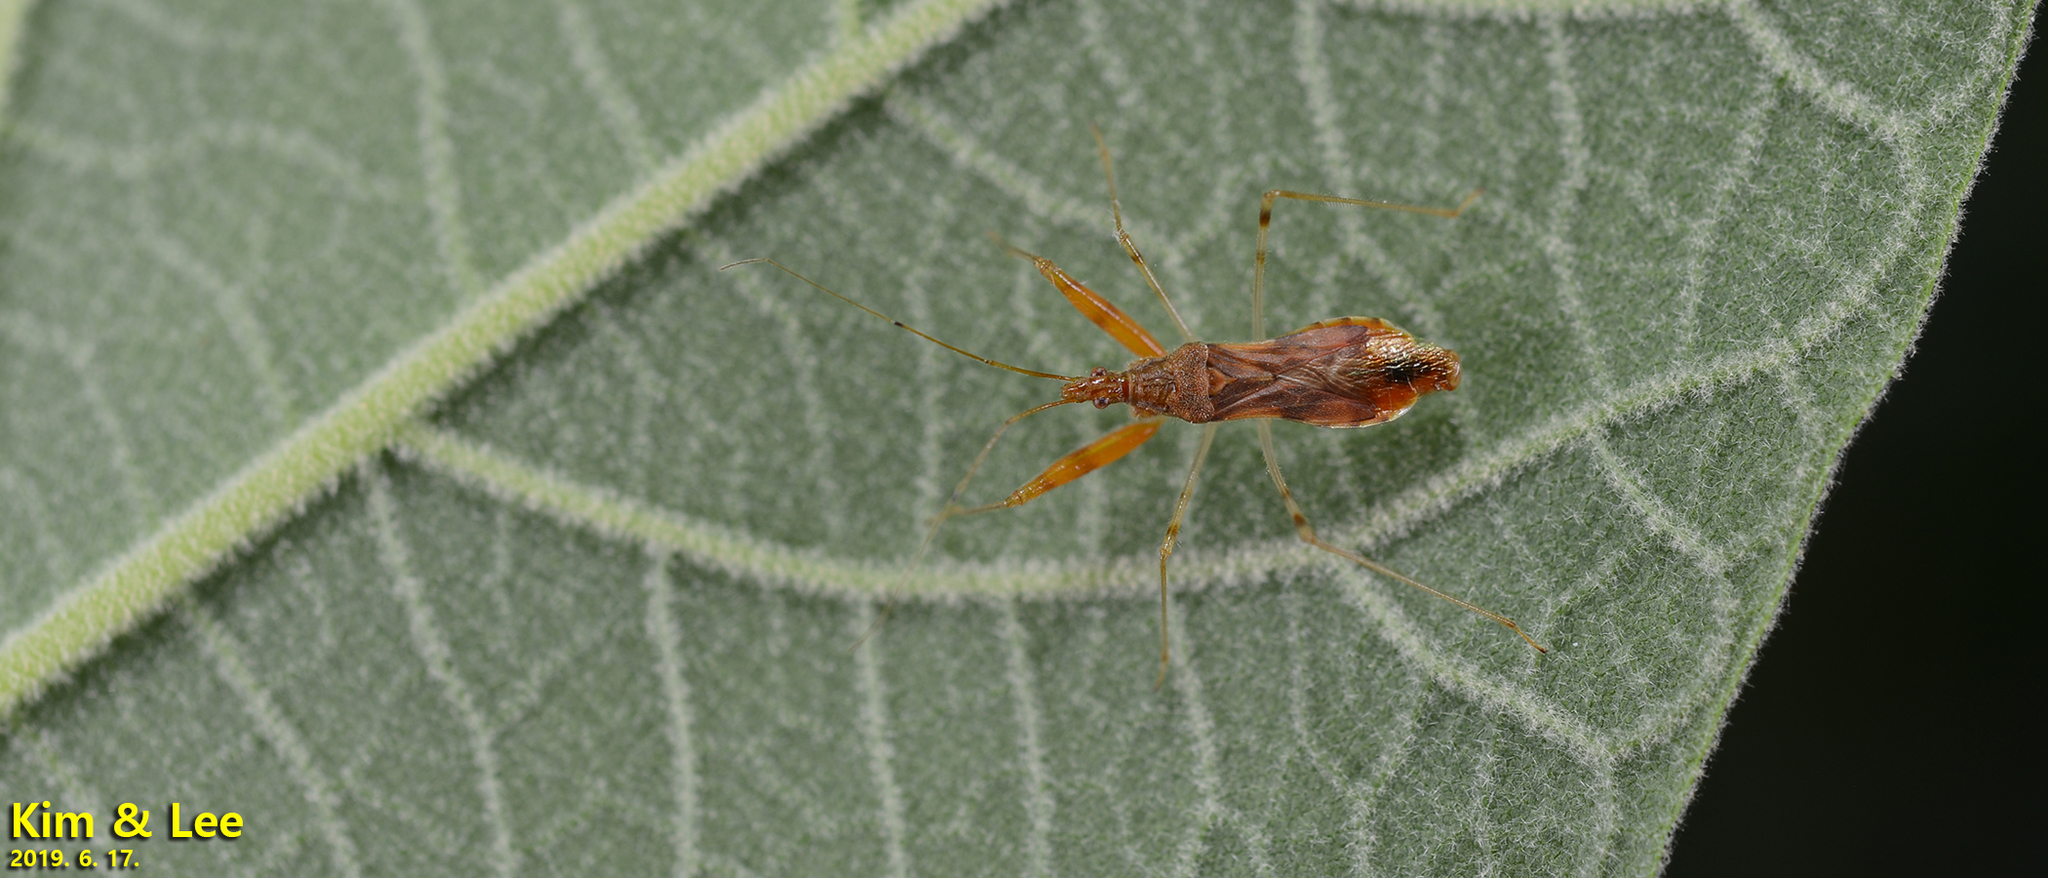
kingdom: Animalia
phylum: Arthropoda
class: Insecta
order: Hemiptera
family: Nabidae
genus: Gorpis
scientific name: Gorpis
